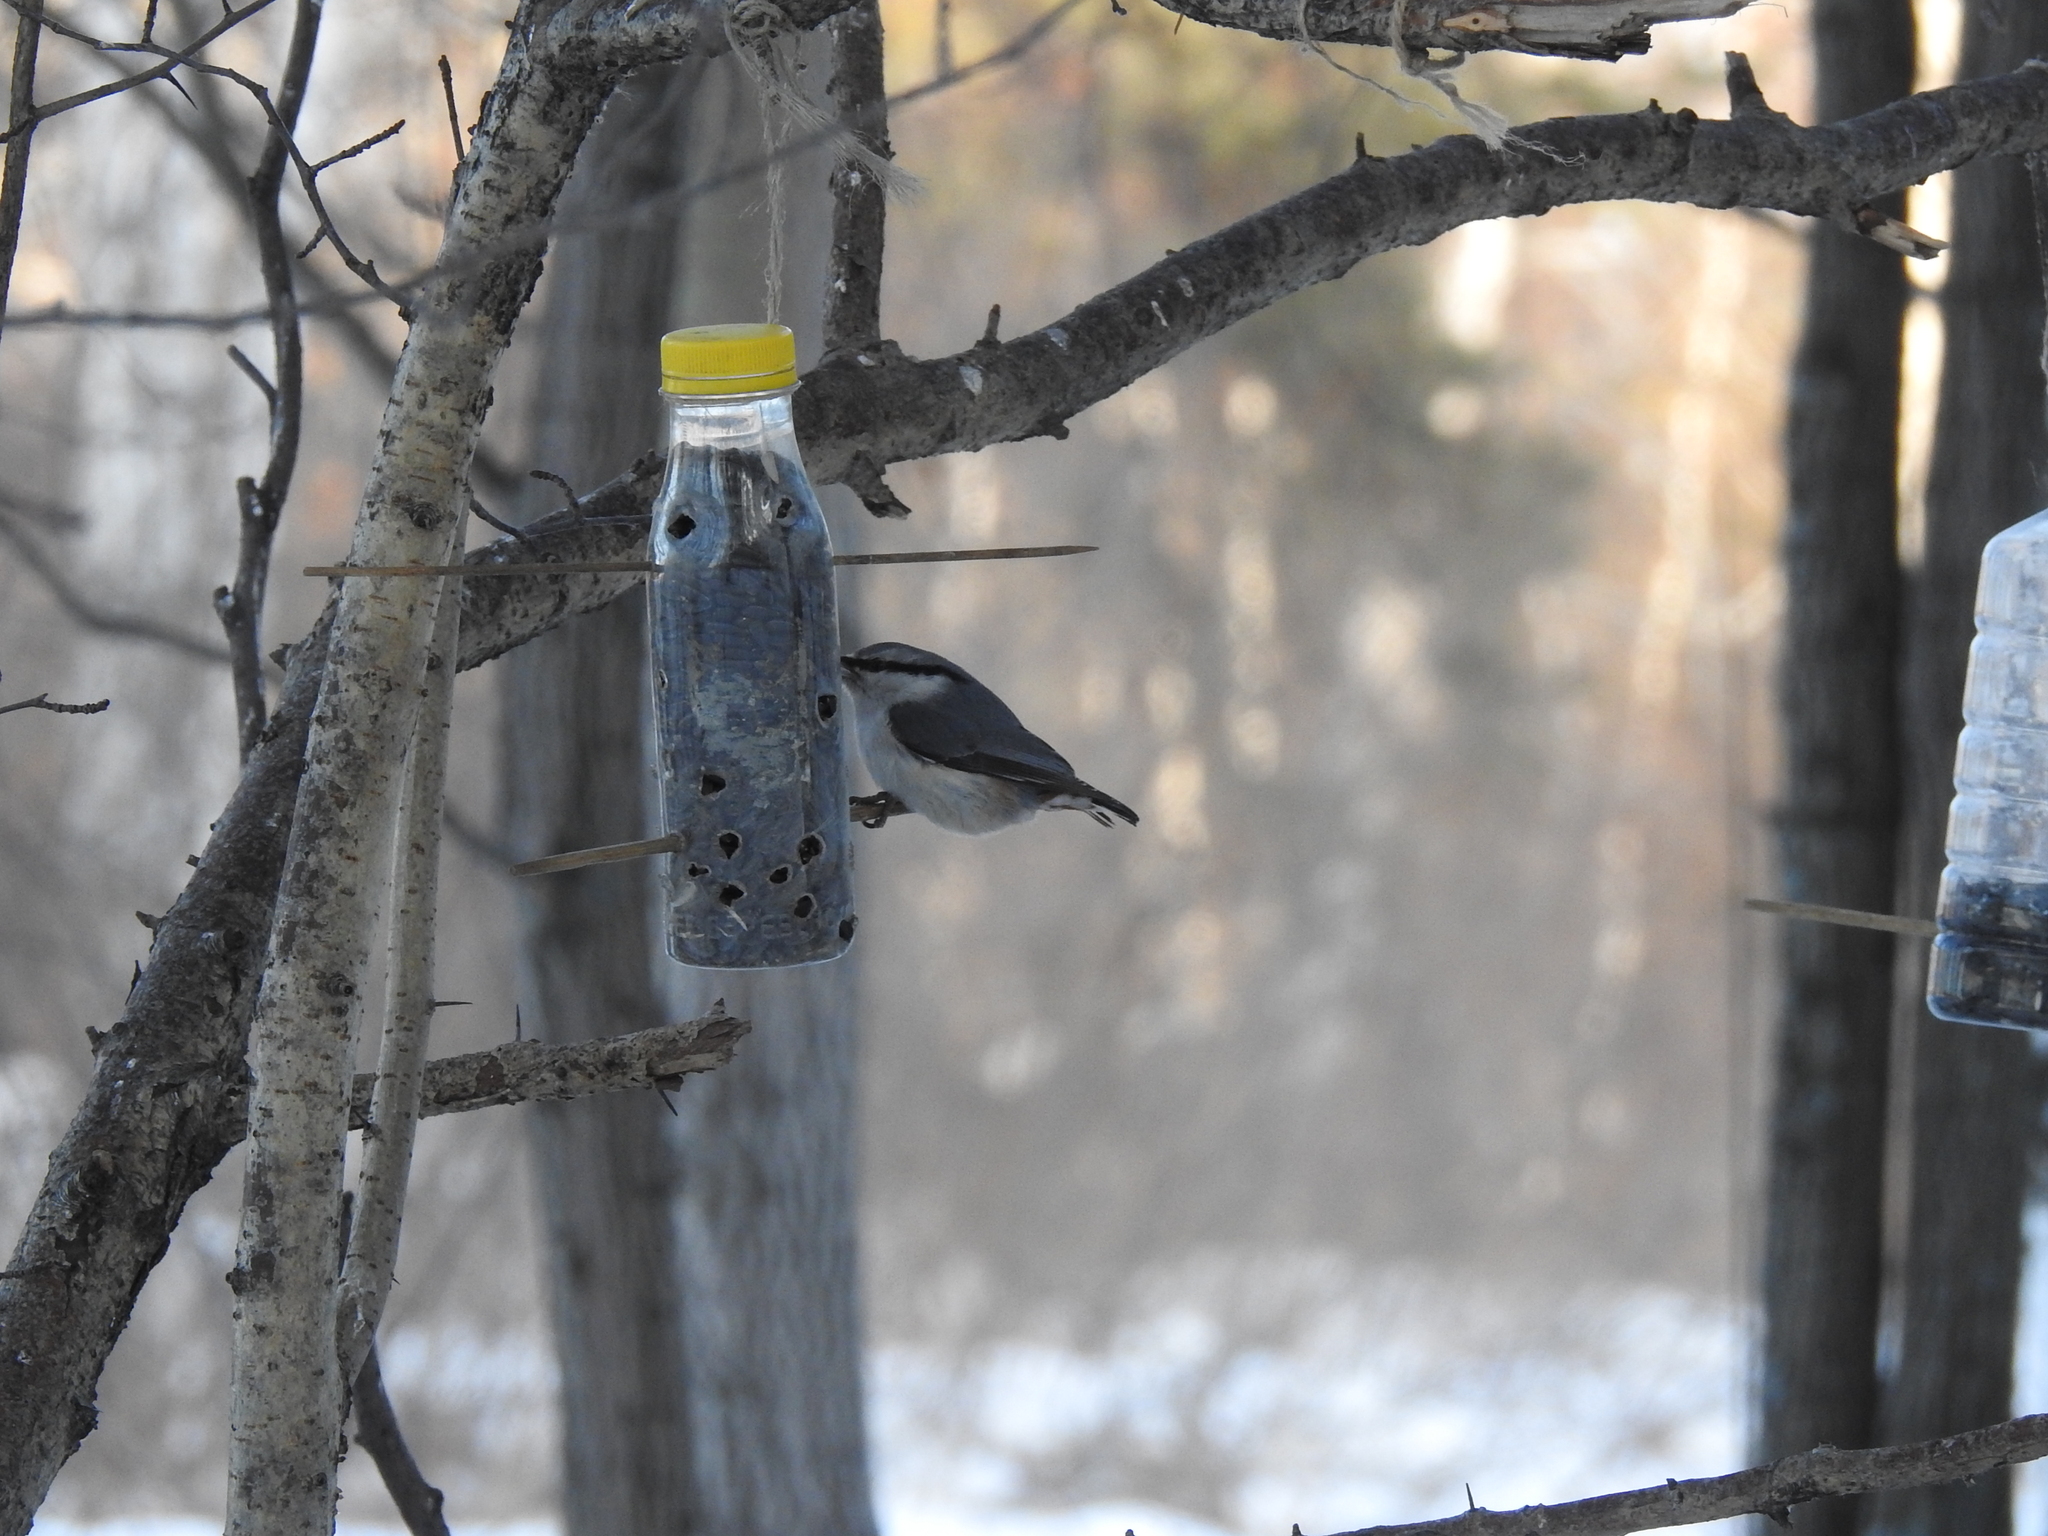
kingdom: Animalia
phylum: Chordata
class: Aves
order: Passeriformes
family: Sittidae
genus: Sitta
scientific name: Sitta europaea
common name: Eurasian nuthatch
